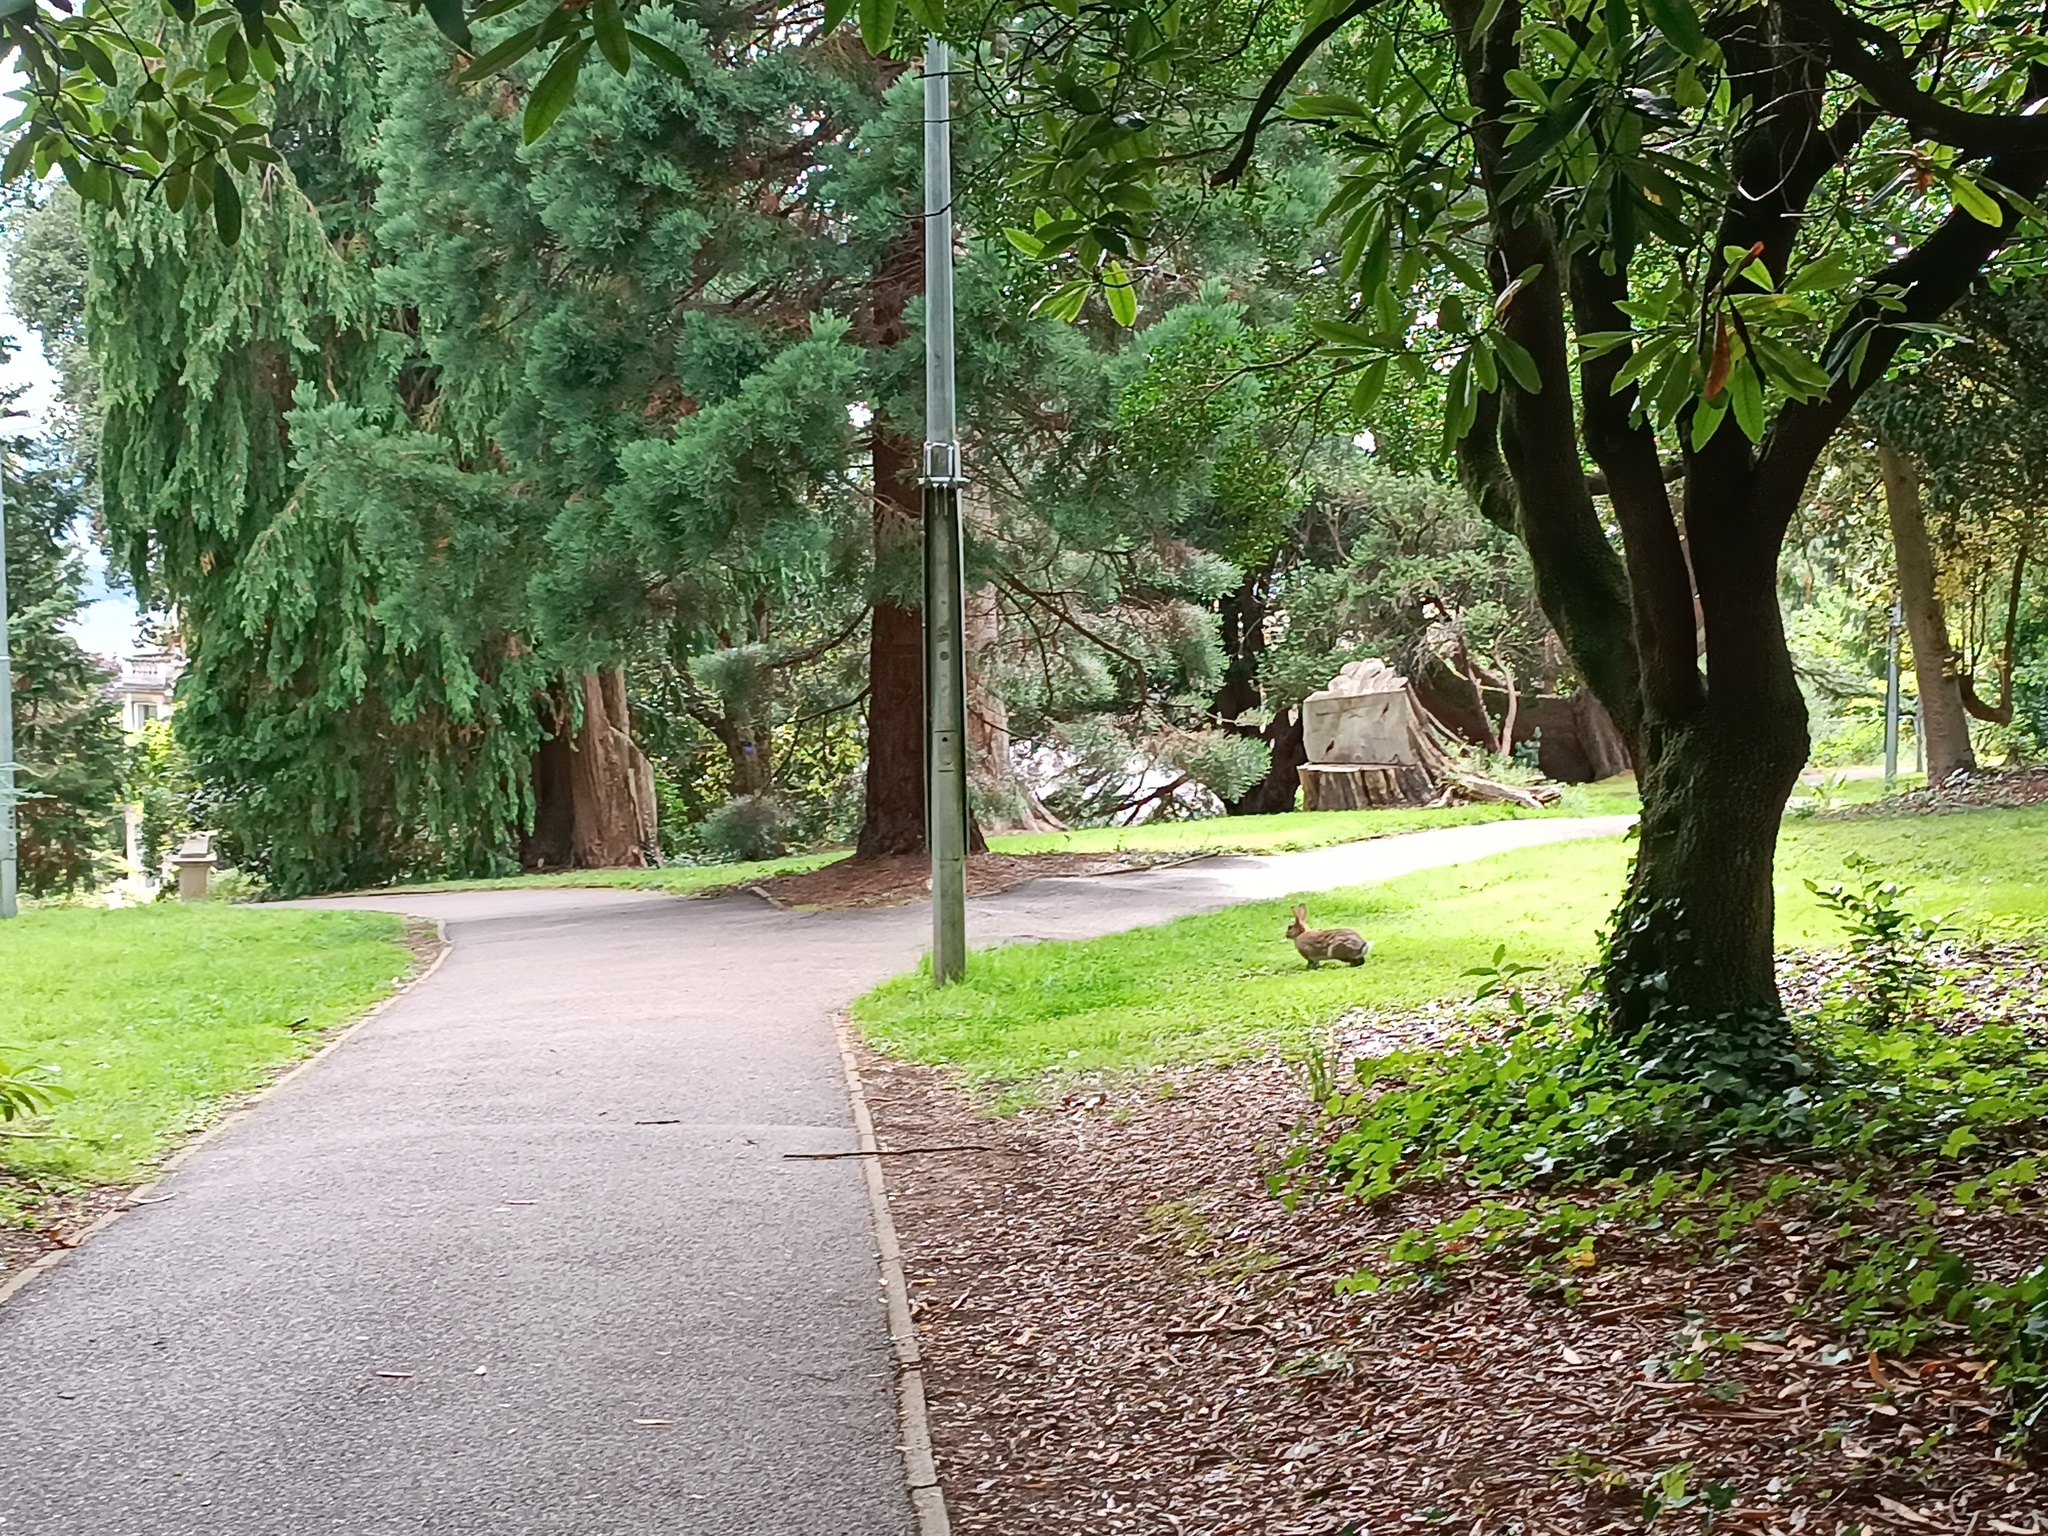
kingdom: Animalia
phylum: Chordata
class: Mammalia
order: Lagomorpha
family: Leporidae
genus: Oryctolagus
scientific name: Oryctolagus cuniculus
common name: European rabbit
